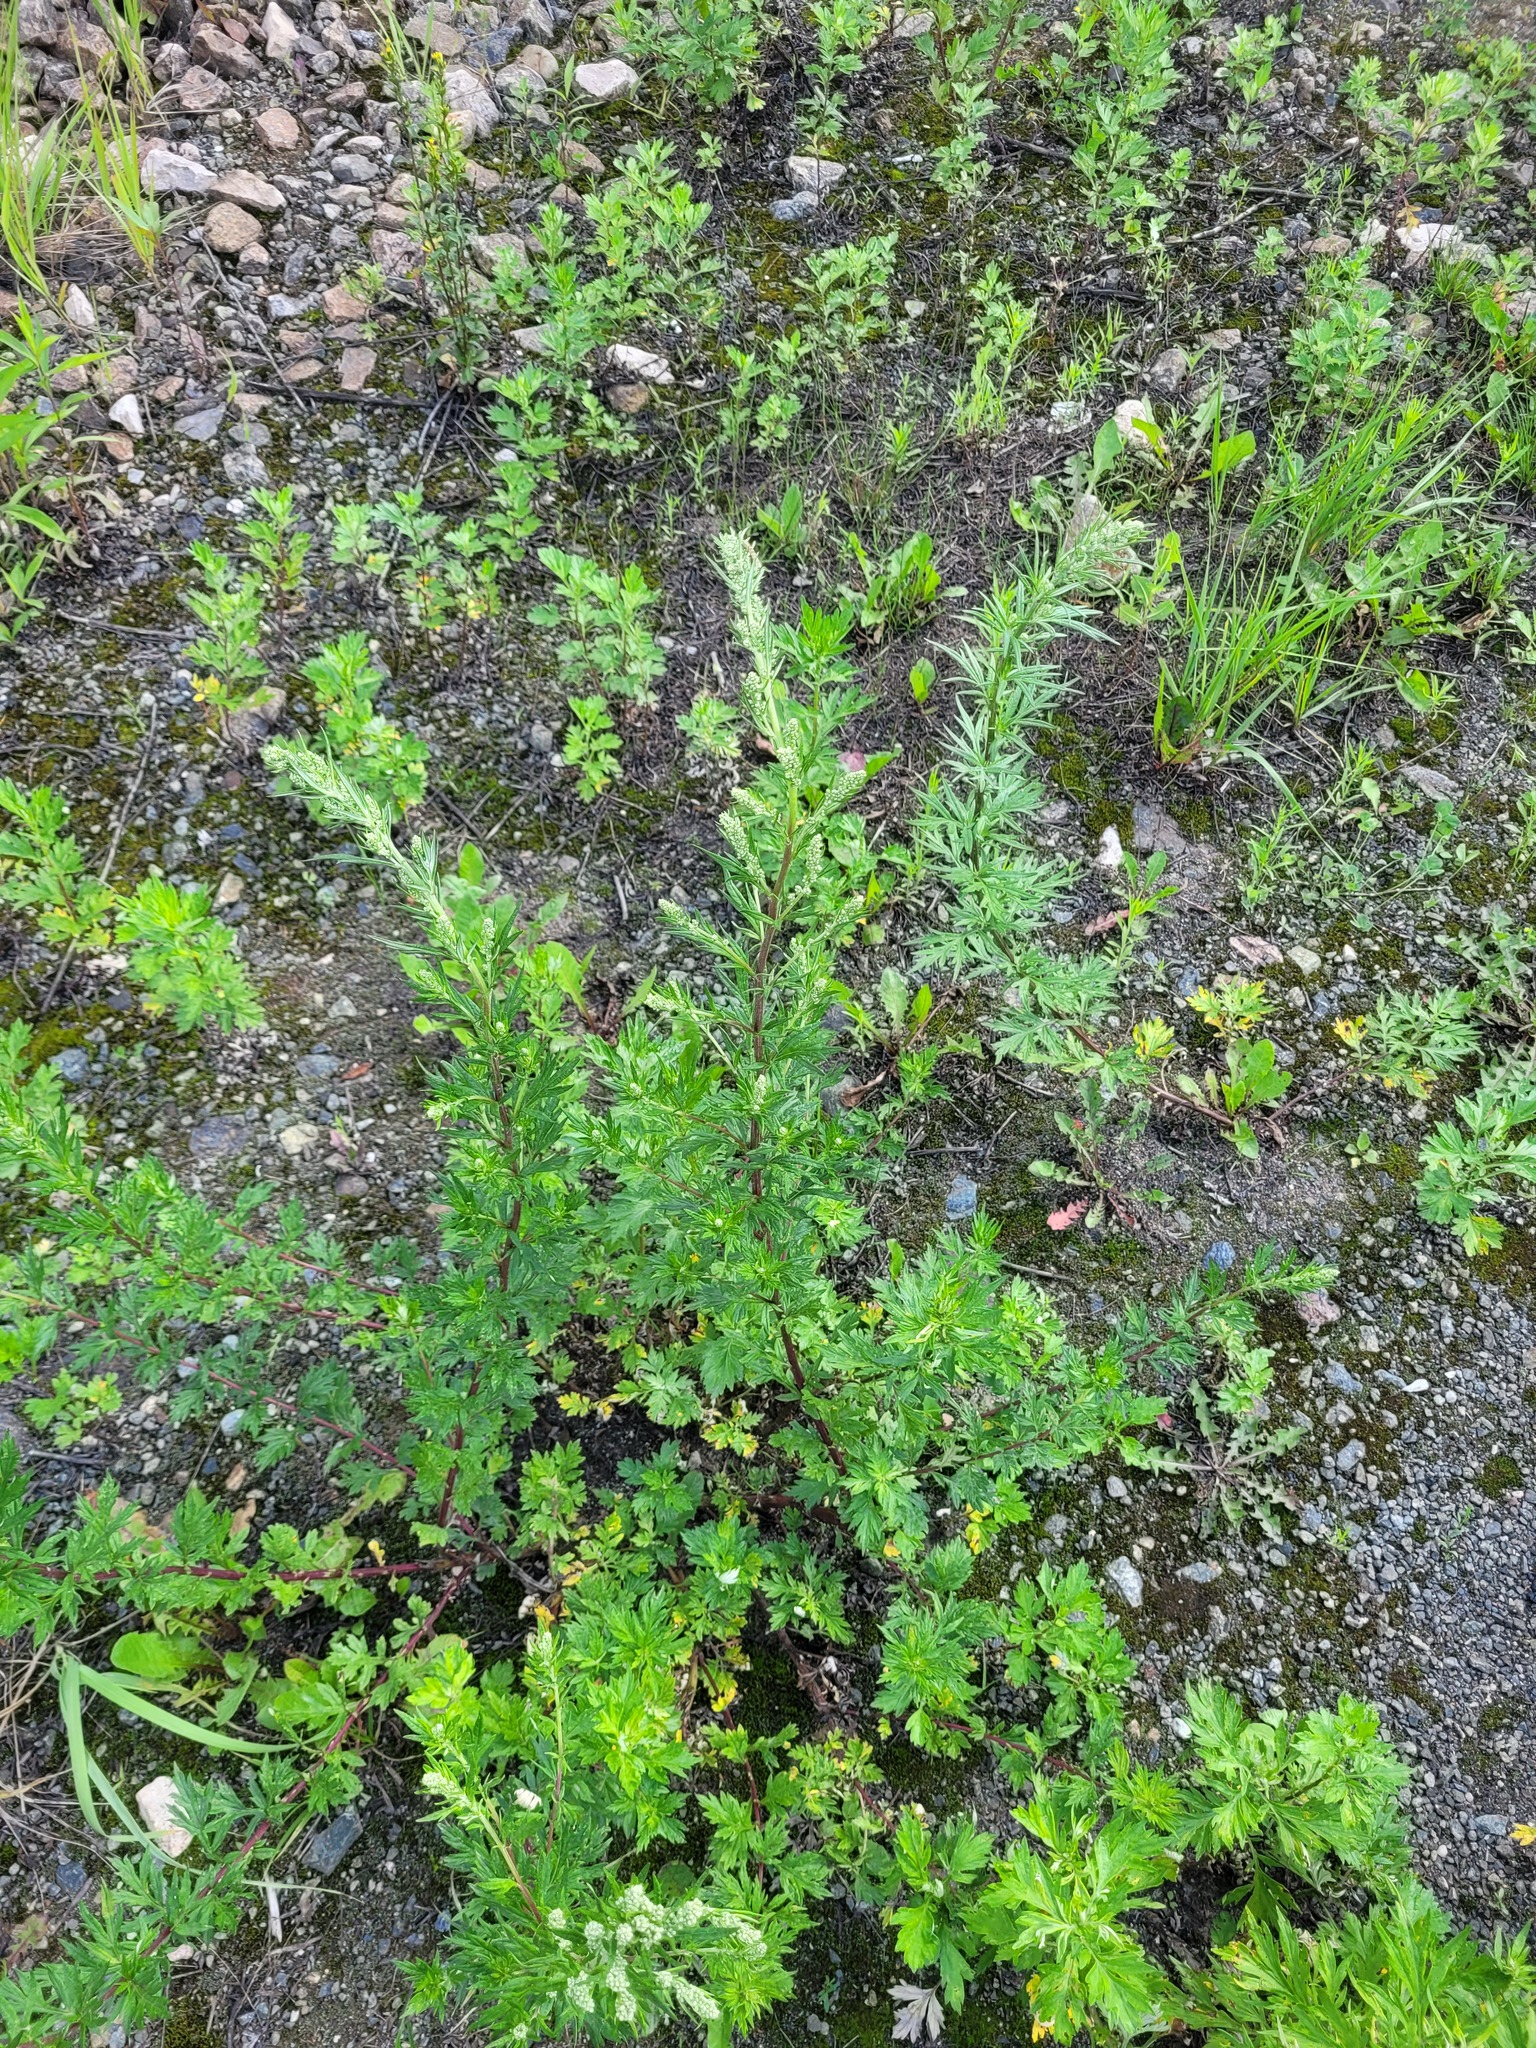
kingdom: Plantae
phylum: Tracheophyta
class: Magnoliopsida
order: Asterales
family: Asteraceae
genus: Artemisia
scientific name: Artemisia vulgaris
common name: Mugwort
